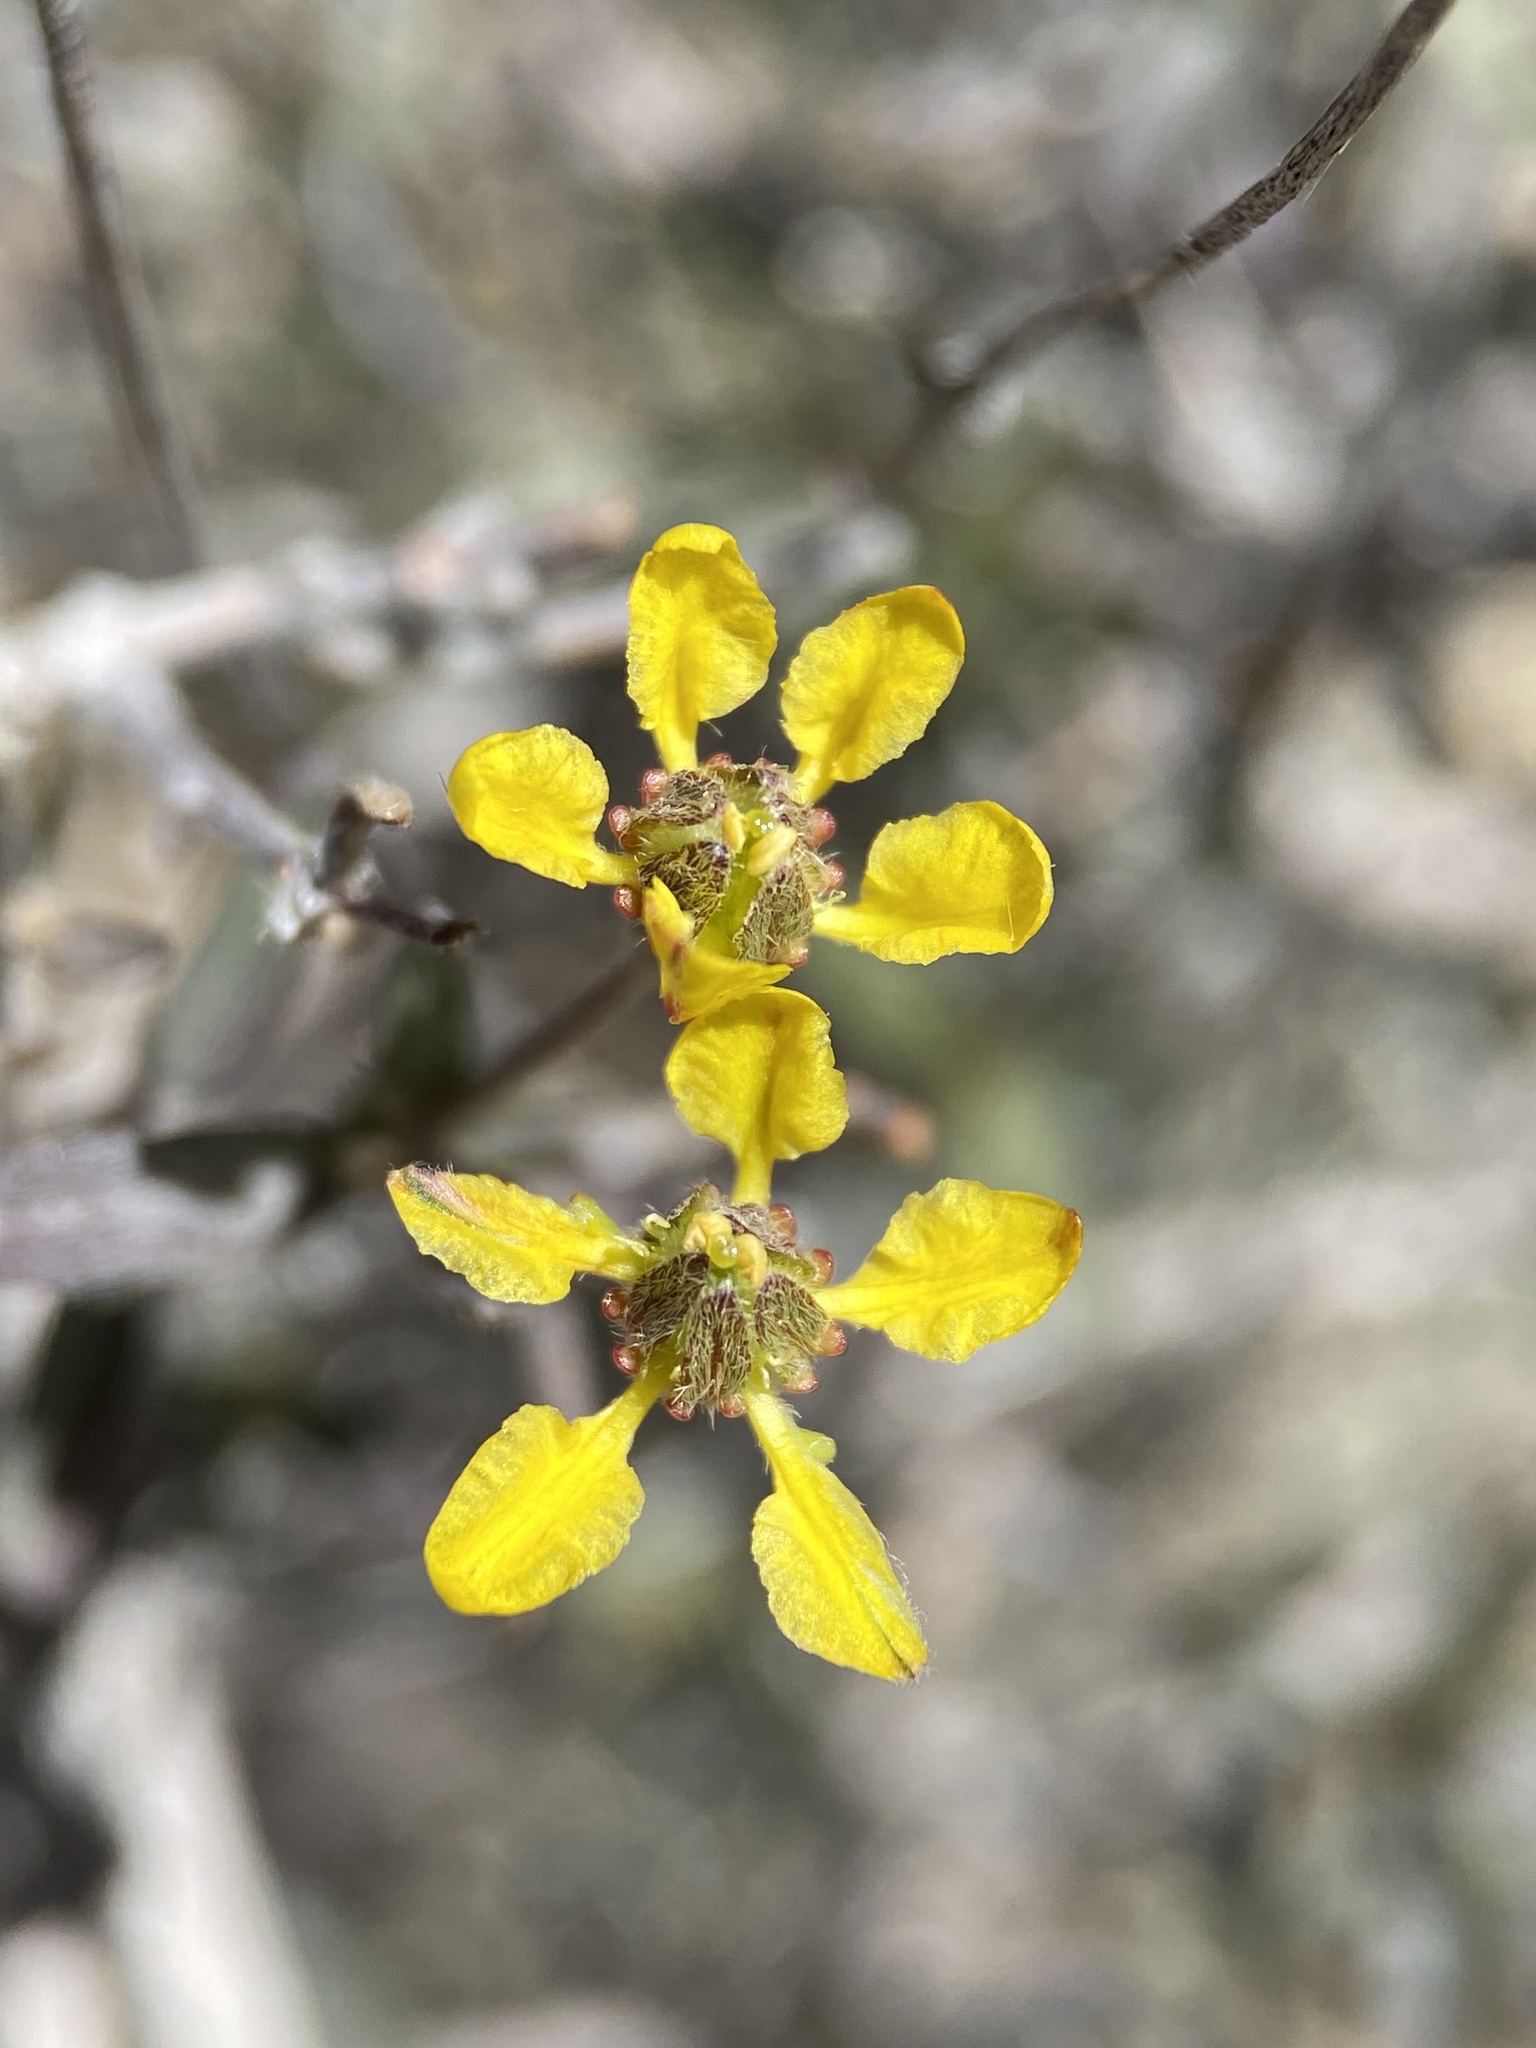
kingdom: Plantae
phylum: Tracheophyta
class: Magnoliopsida
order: Malpighiales
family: Malpighiaceae
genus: Cottsia
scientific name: Cottsia gracilis
